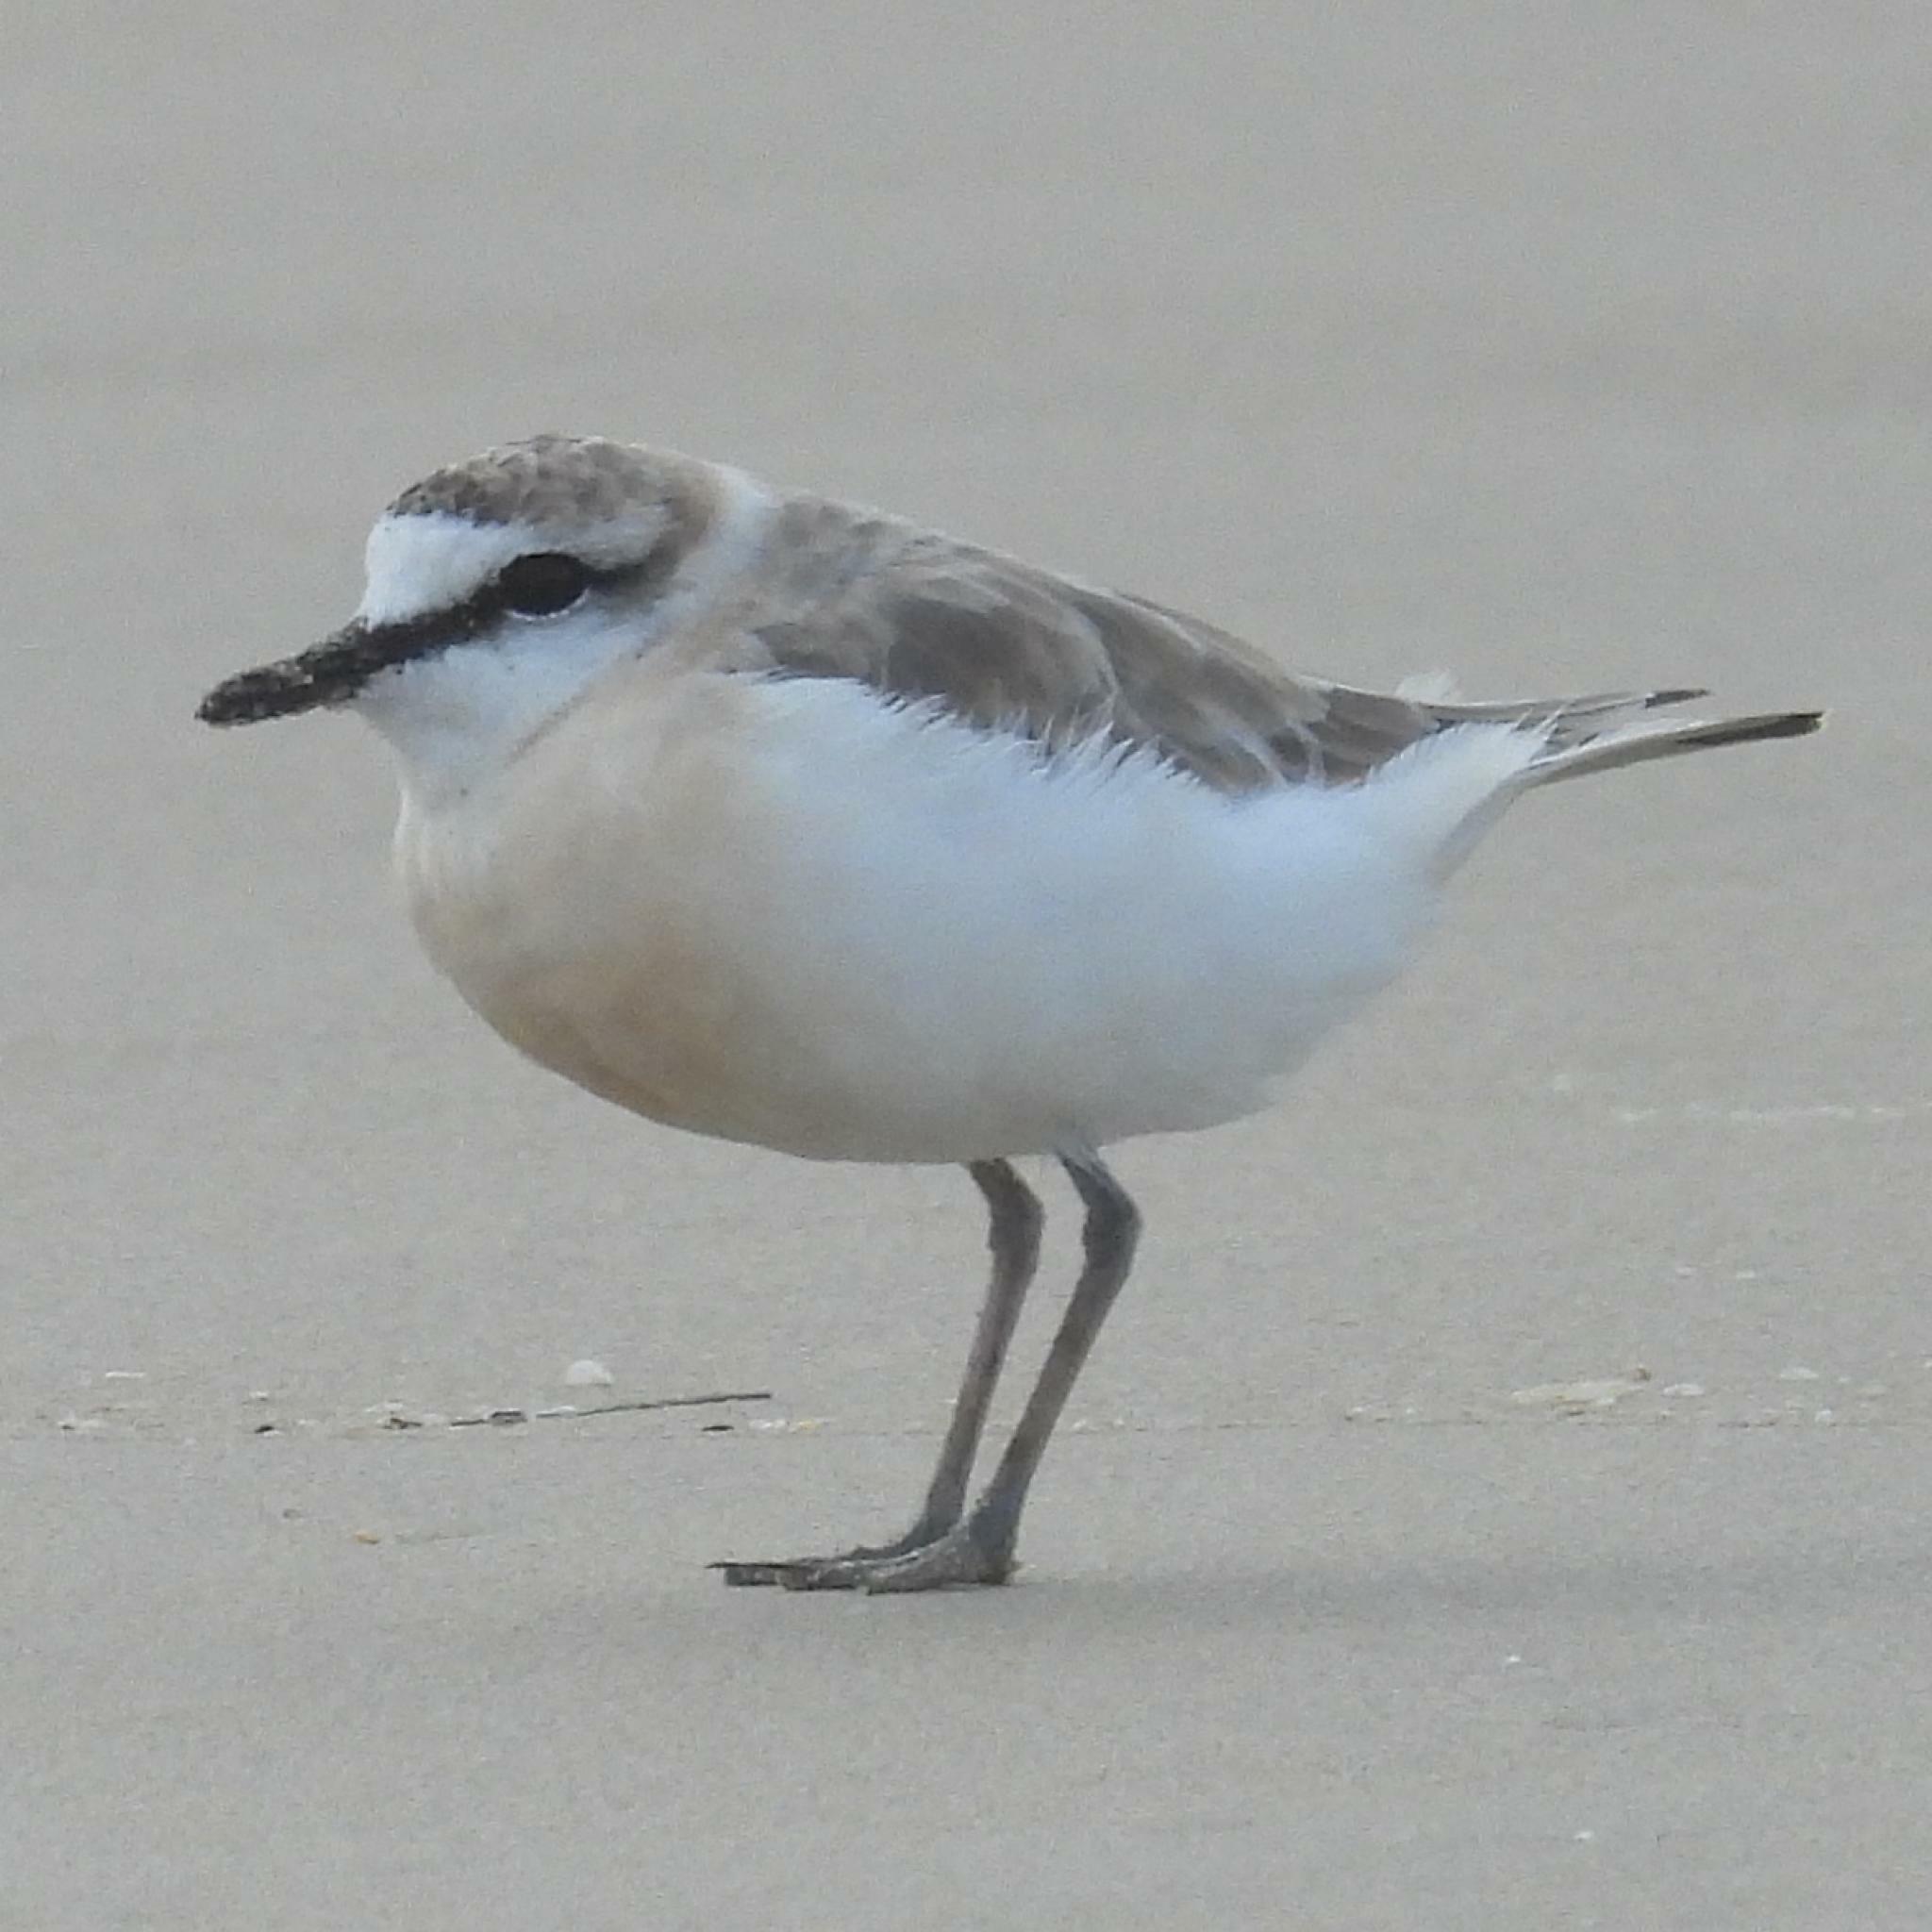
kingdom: Animalia
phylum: Chordata
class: Aves
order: Charadriiformes
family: Charadriidae
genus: Anarhynchus
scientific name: Anarhynchus
